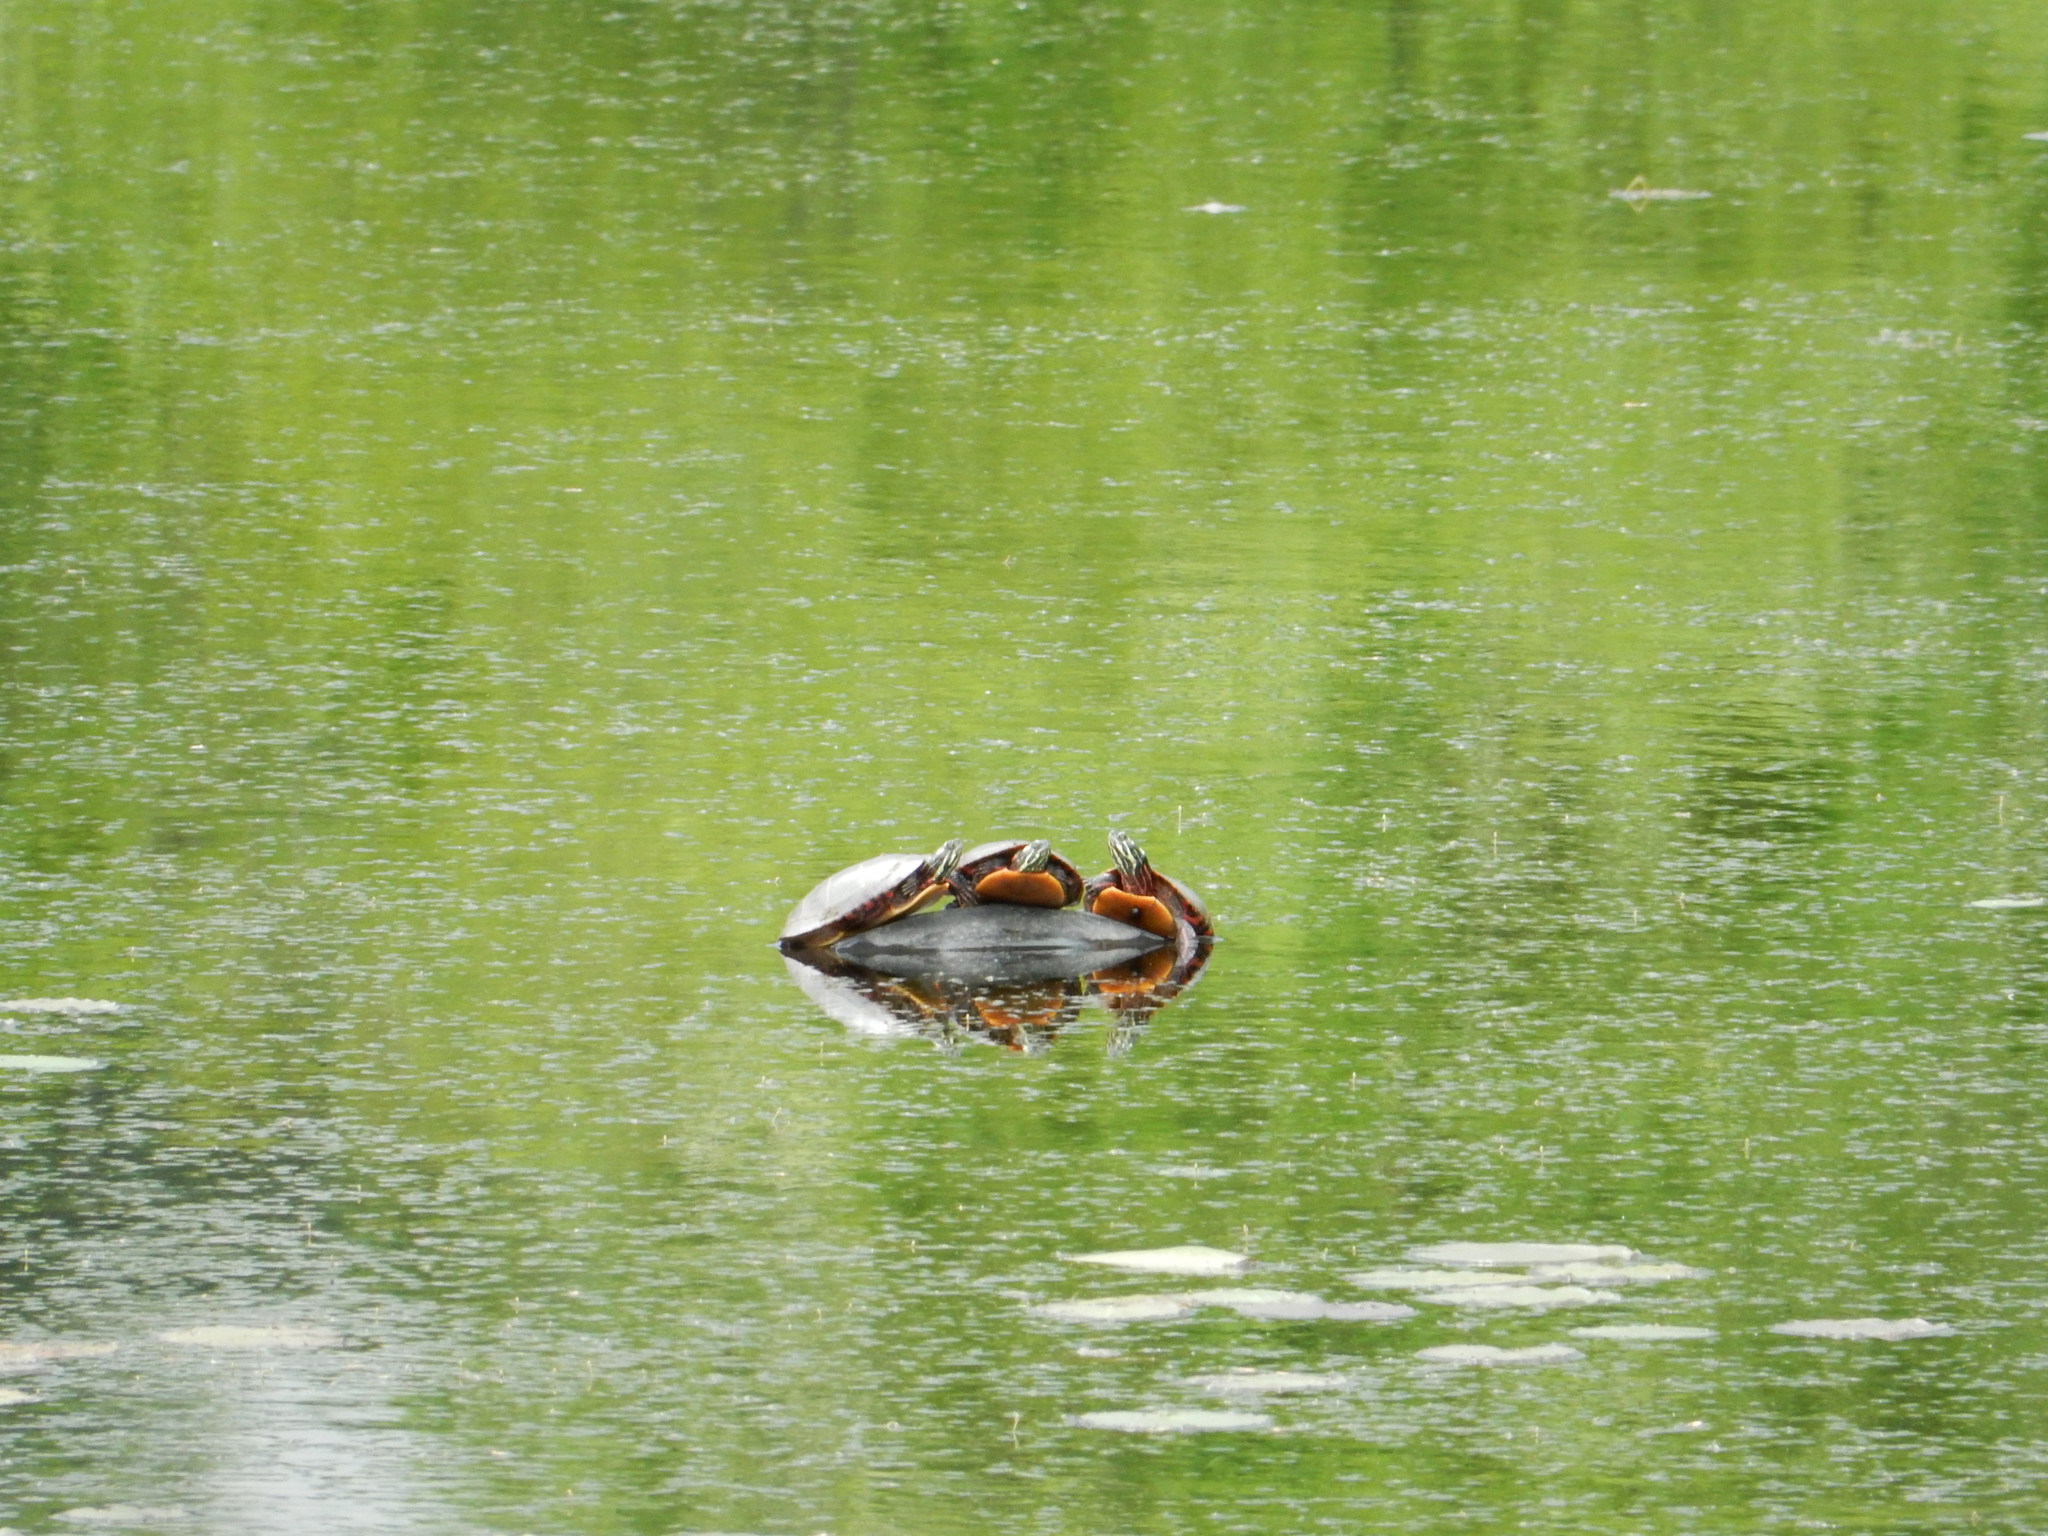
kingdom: Animalia
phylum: Chordata
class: Testudines
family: Emydidae
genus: Chrysemys
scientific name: Chrysemys picta
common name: Painted turtle
